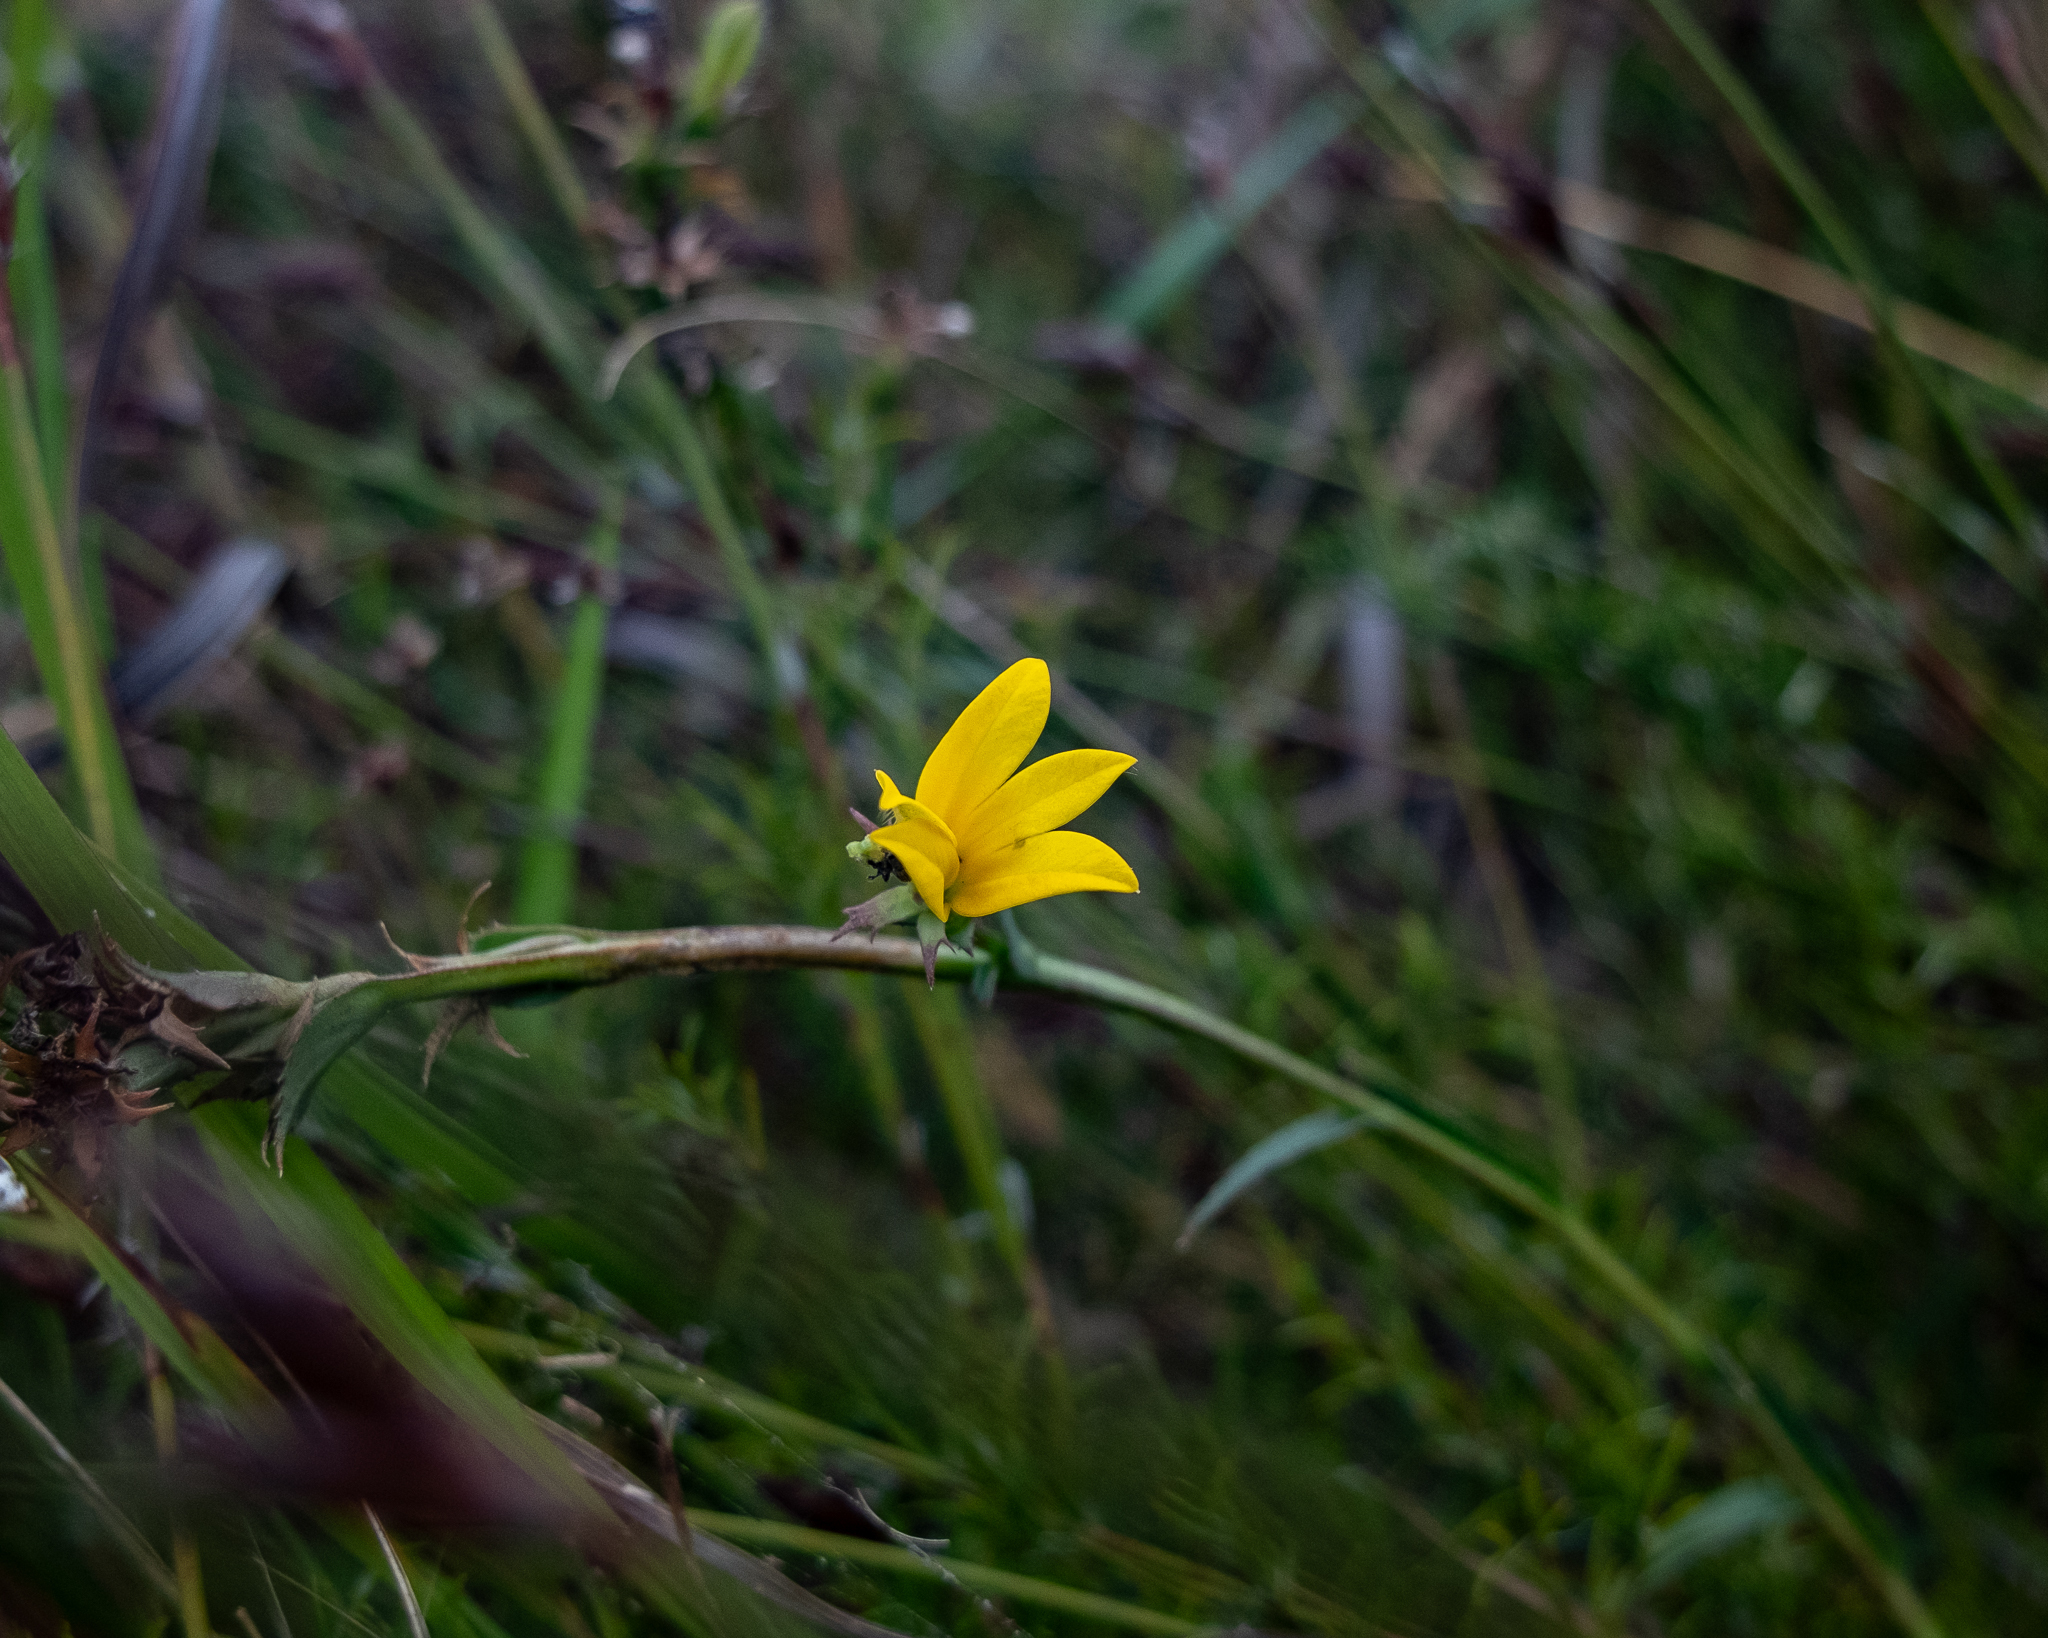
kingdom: Plantae
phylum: Tracheophyta
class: Magnoliopsida
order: Asterales
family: Campanulaceae
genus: Monopsis
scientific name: Monopsis lutea
